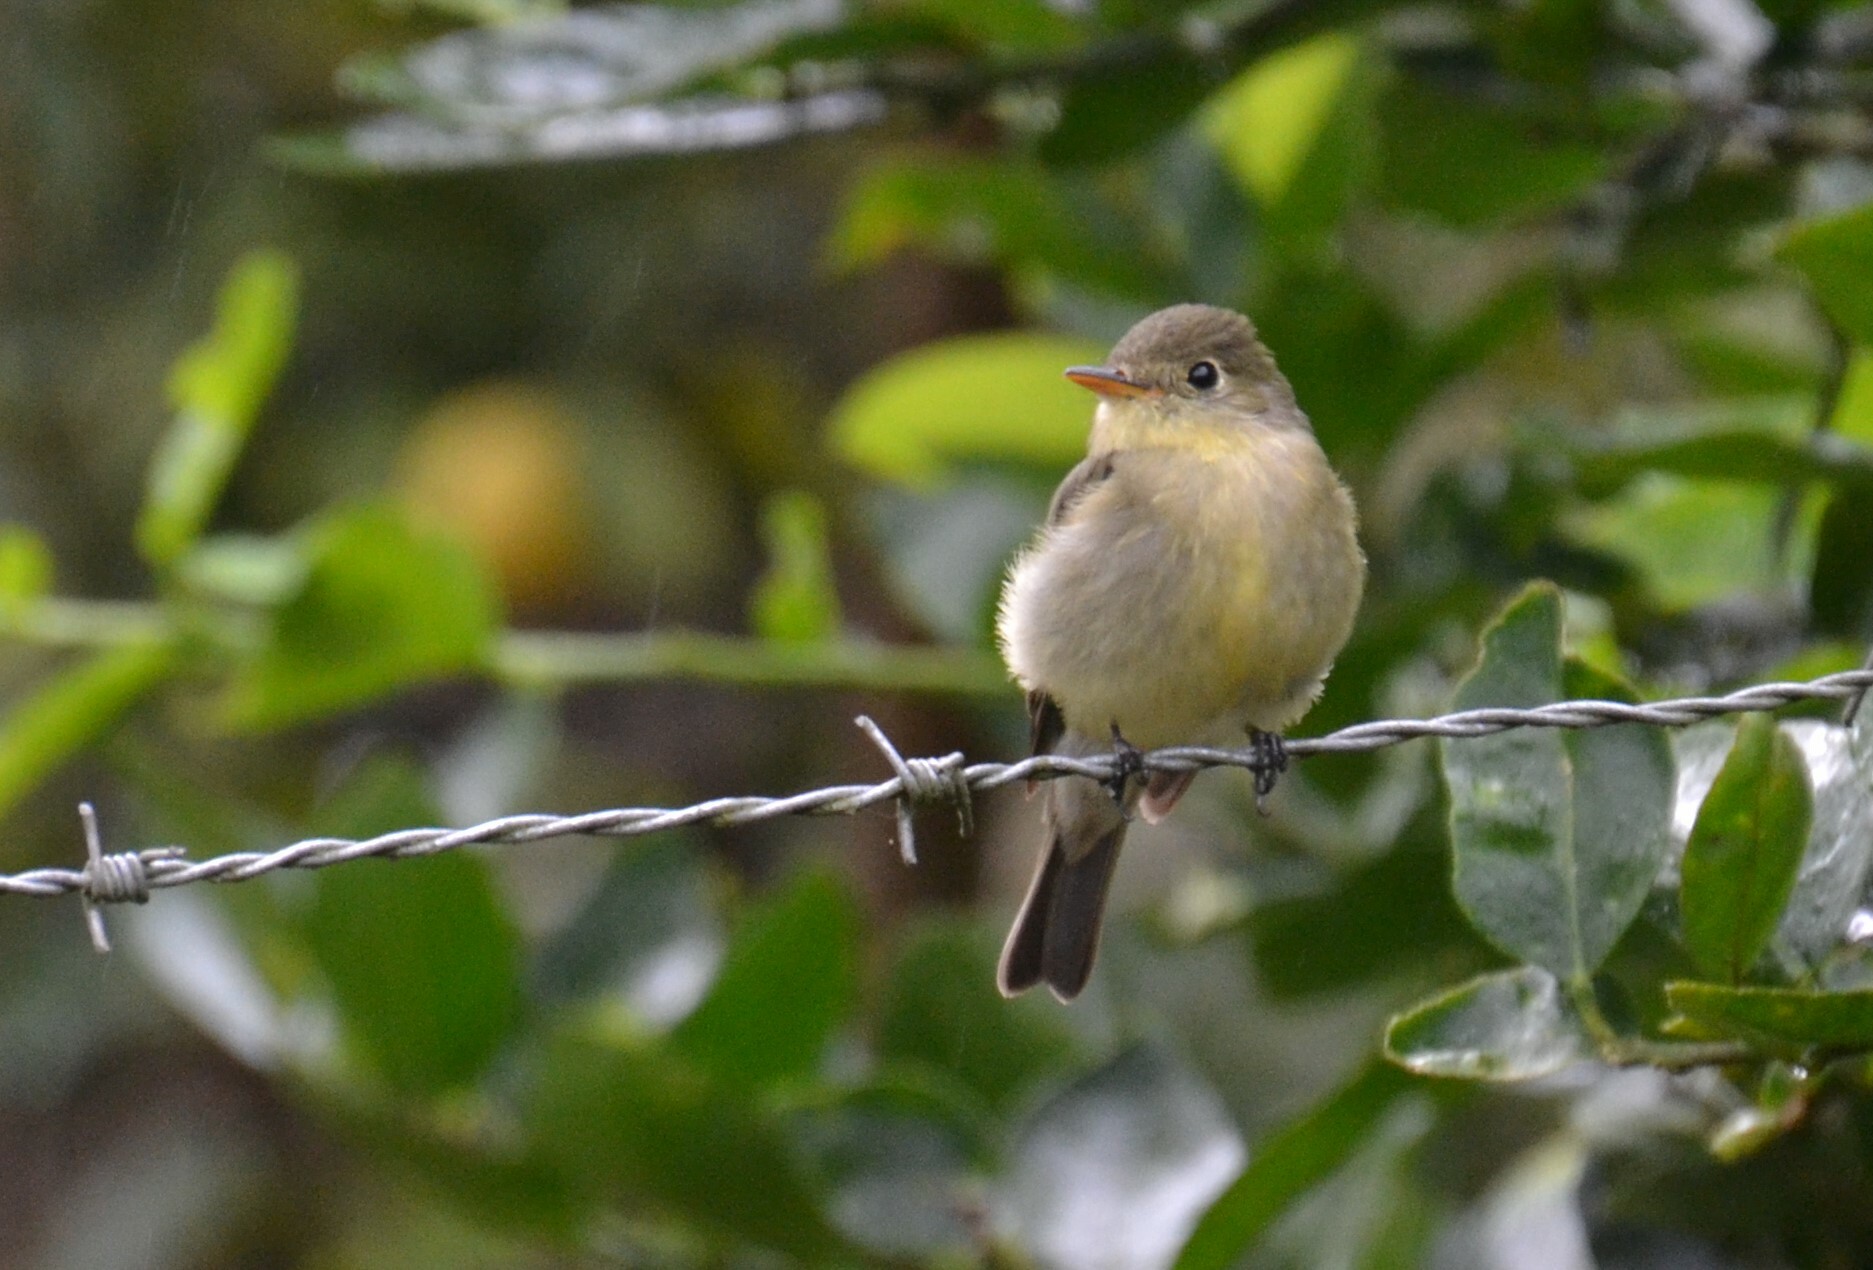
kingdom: Animalia
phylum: Chordata
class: Aves
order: Passeriformes
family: Tyrannidae
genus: Empidonax
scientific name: Empidonax flaviventris
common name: Yellow-bellied flycatcher
